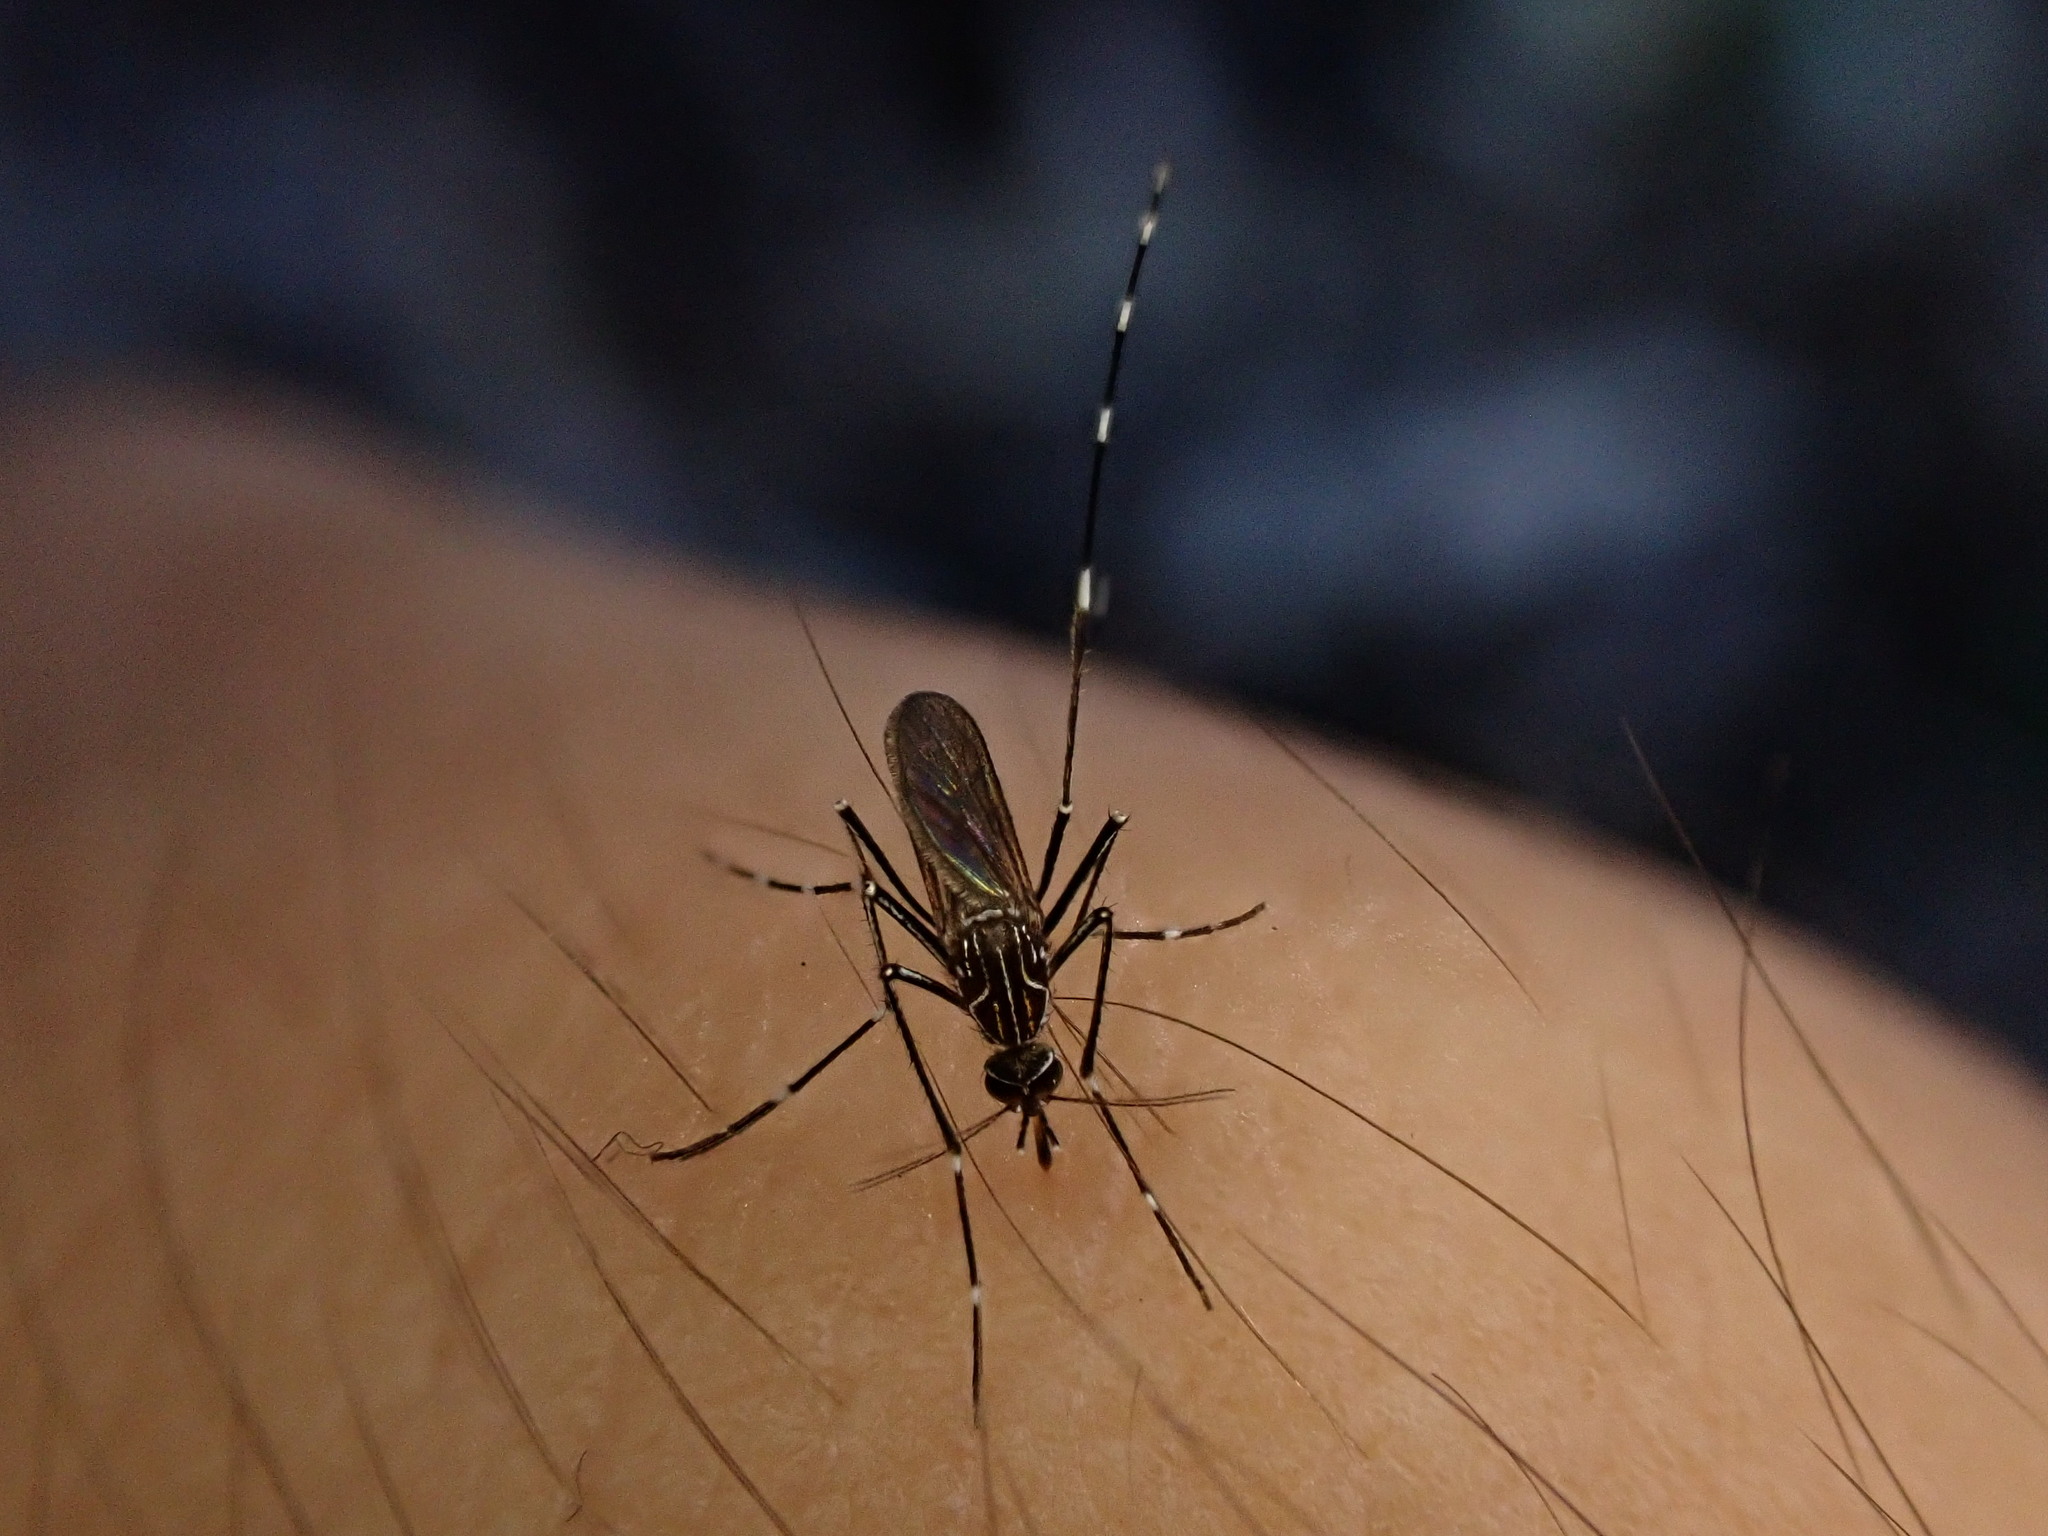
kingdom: Animalia
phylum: Arthropoda
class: Insecta
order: Diptera
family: Culicidae
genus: Aedes
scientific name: Aedes notoscriptus
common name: Australian backyard mosquito
